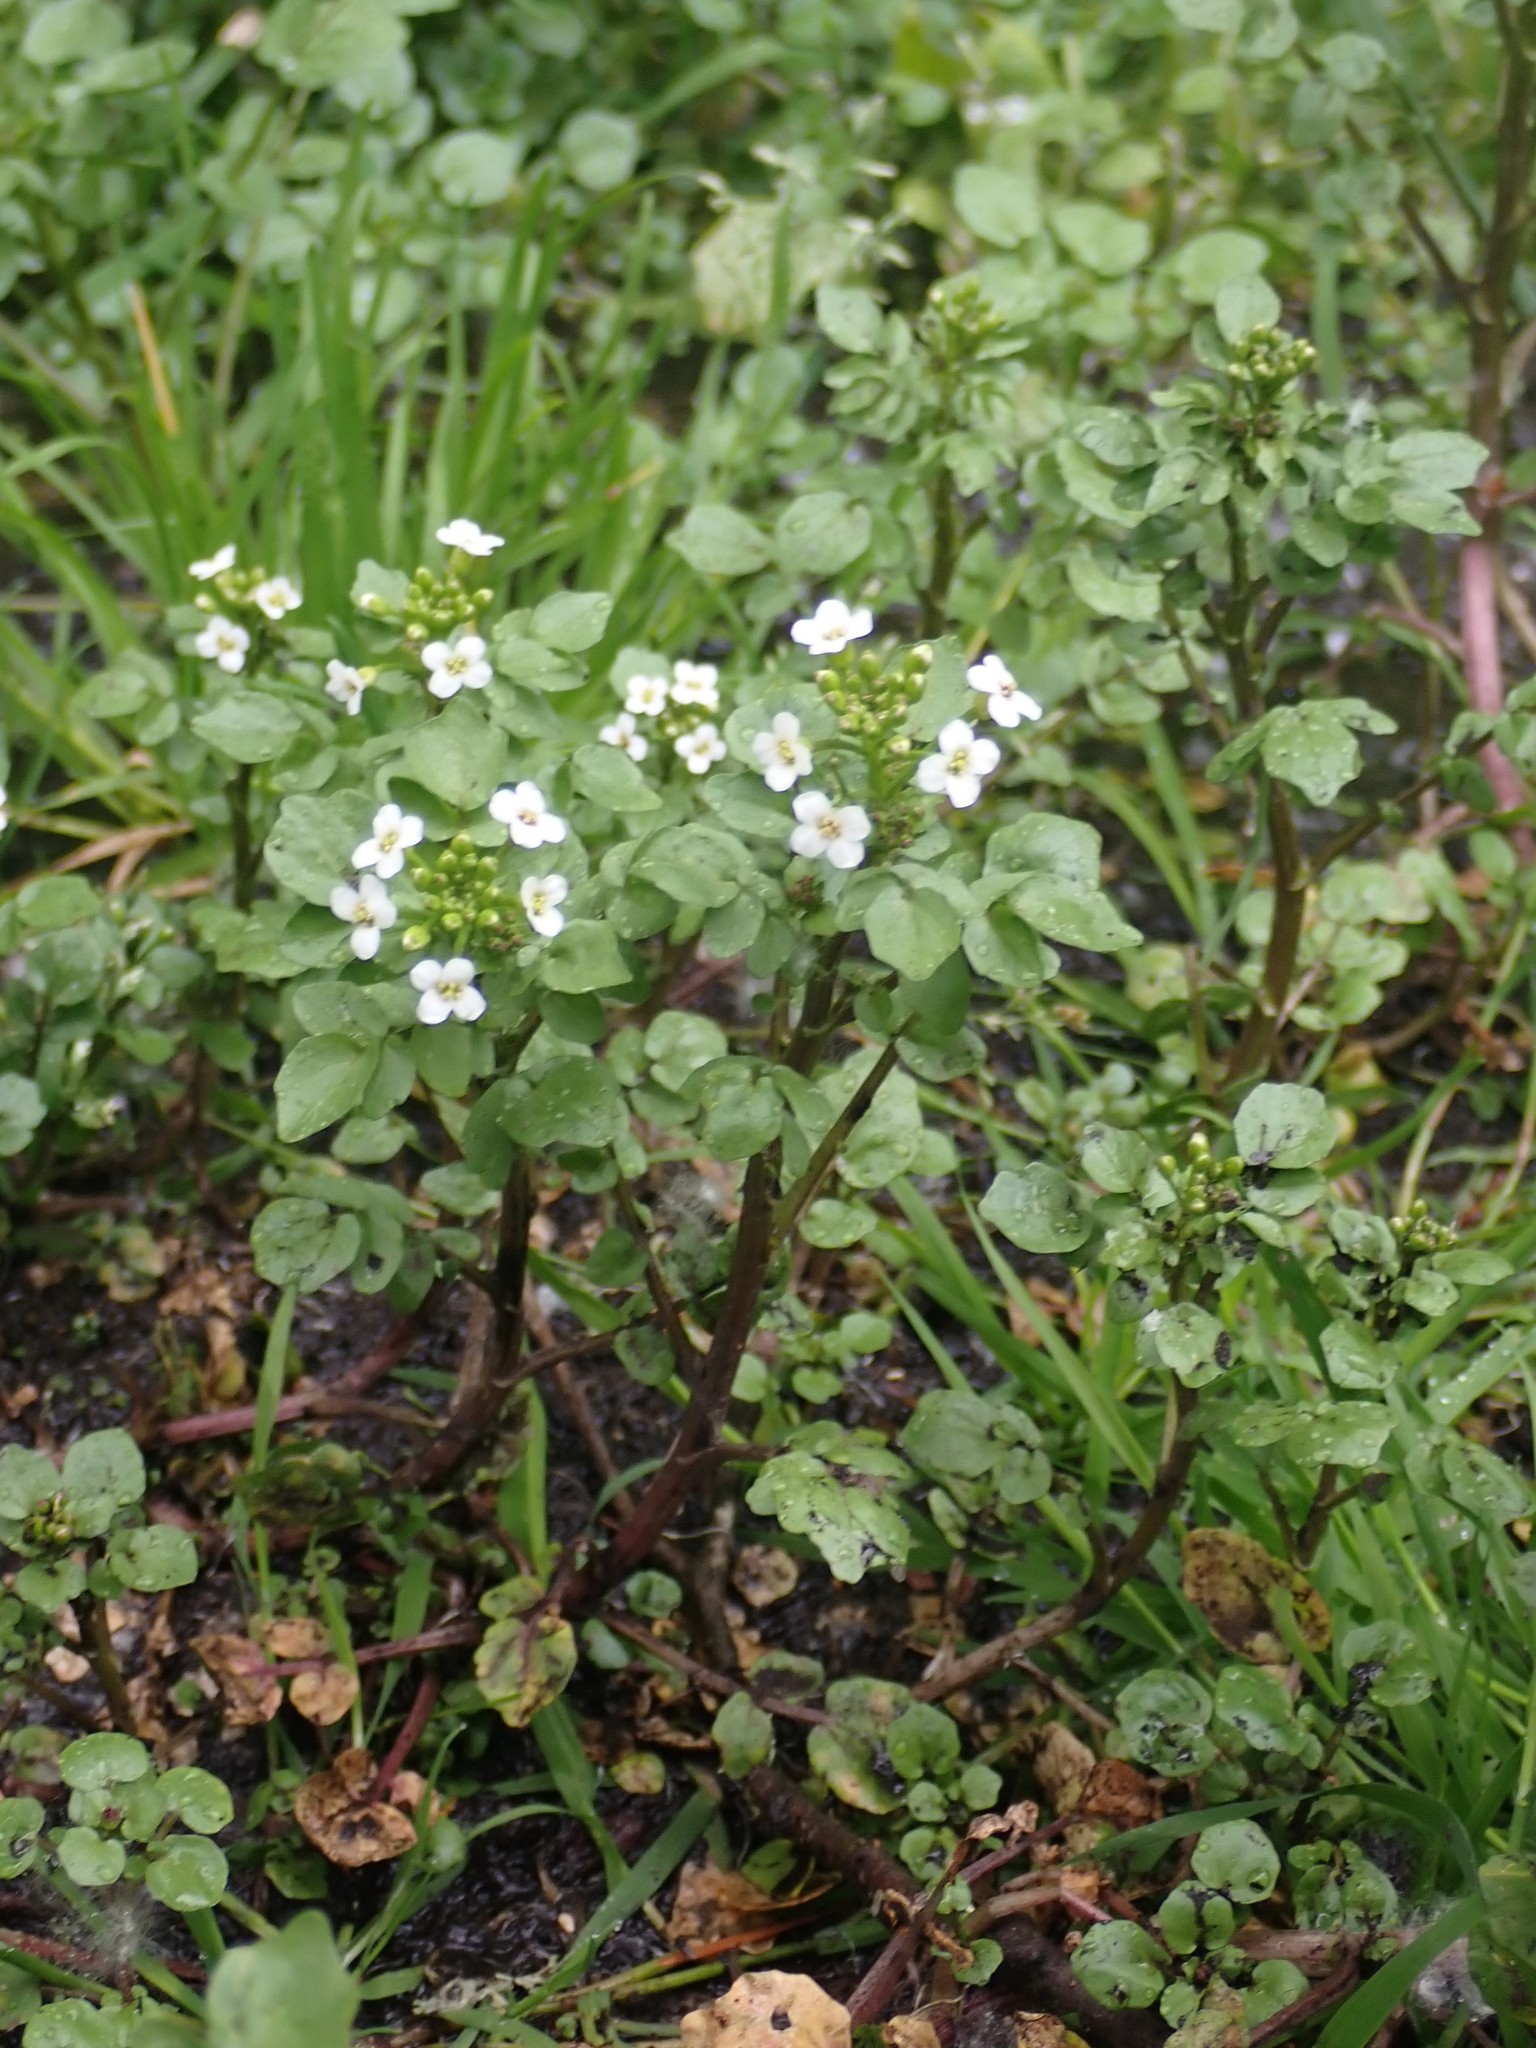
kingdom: Plantae
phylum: Tracheophyta
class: Magnoliopsida
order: Brassicales
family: Brassicaceae
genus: Nasturtium
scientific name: Nasturtium officinale
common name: Watercress
